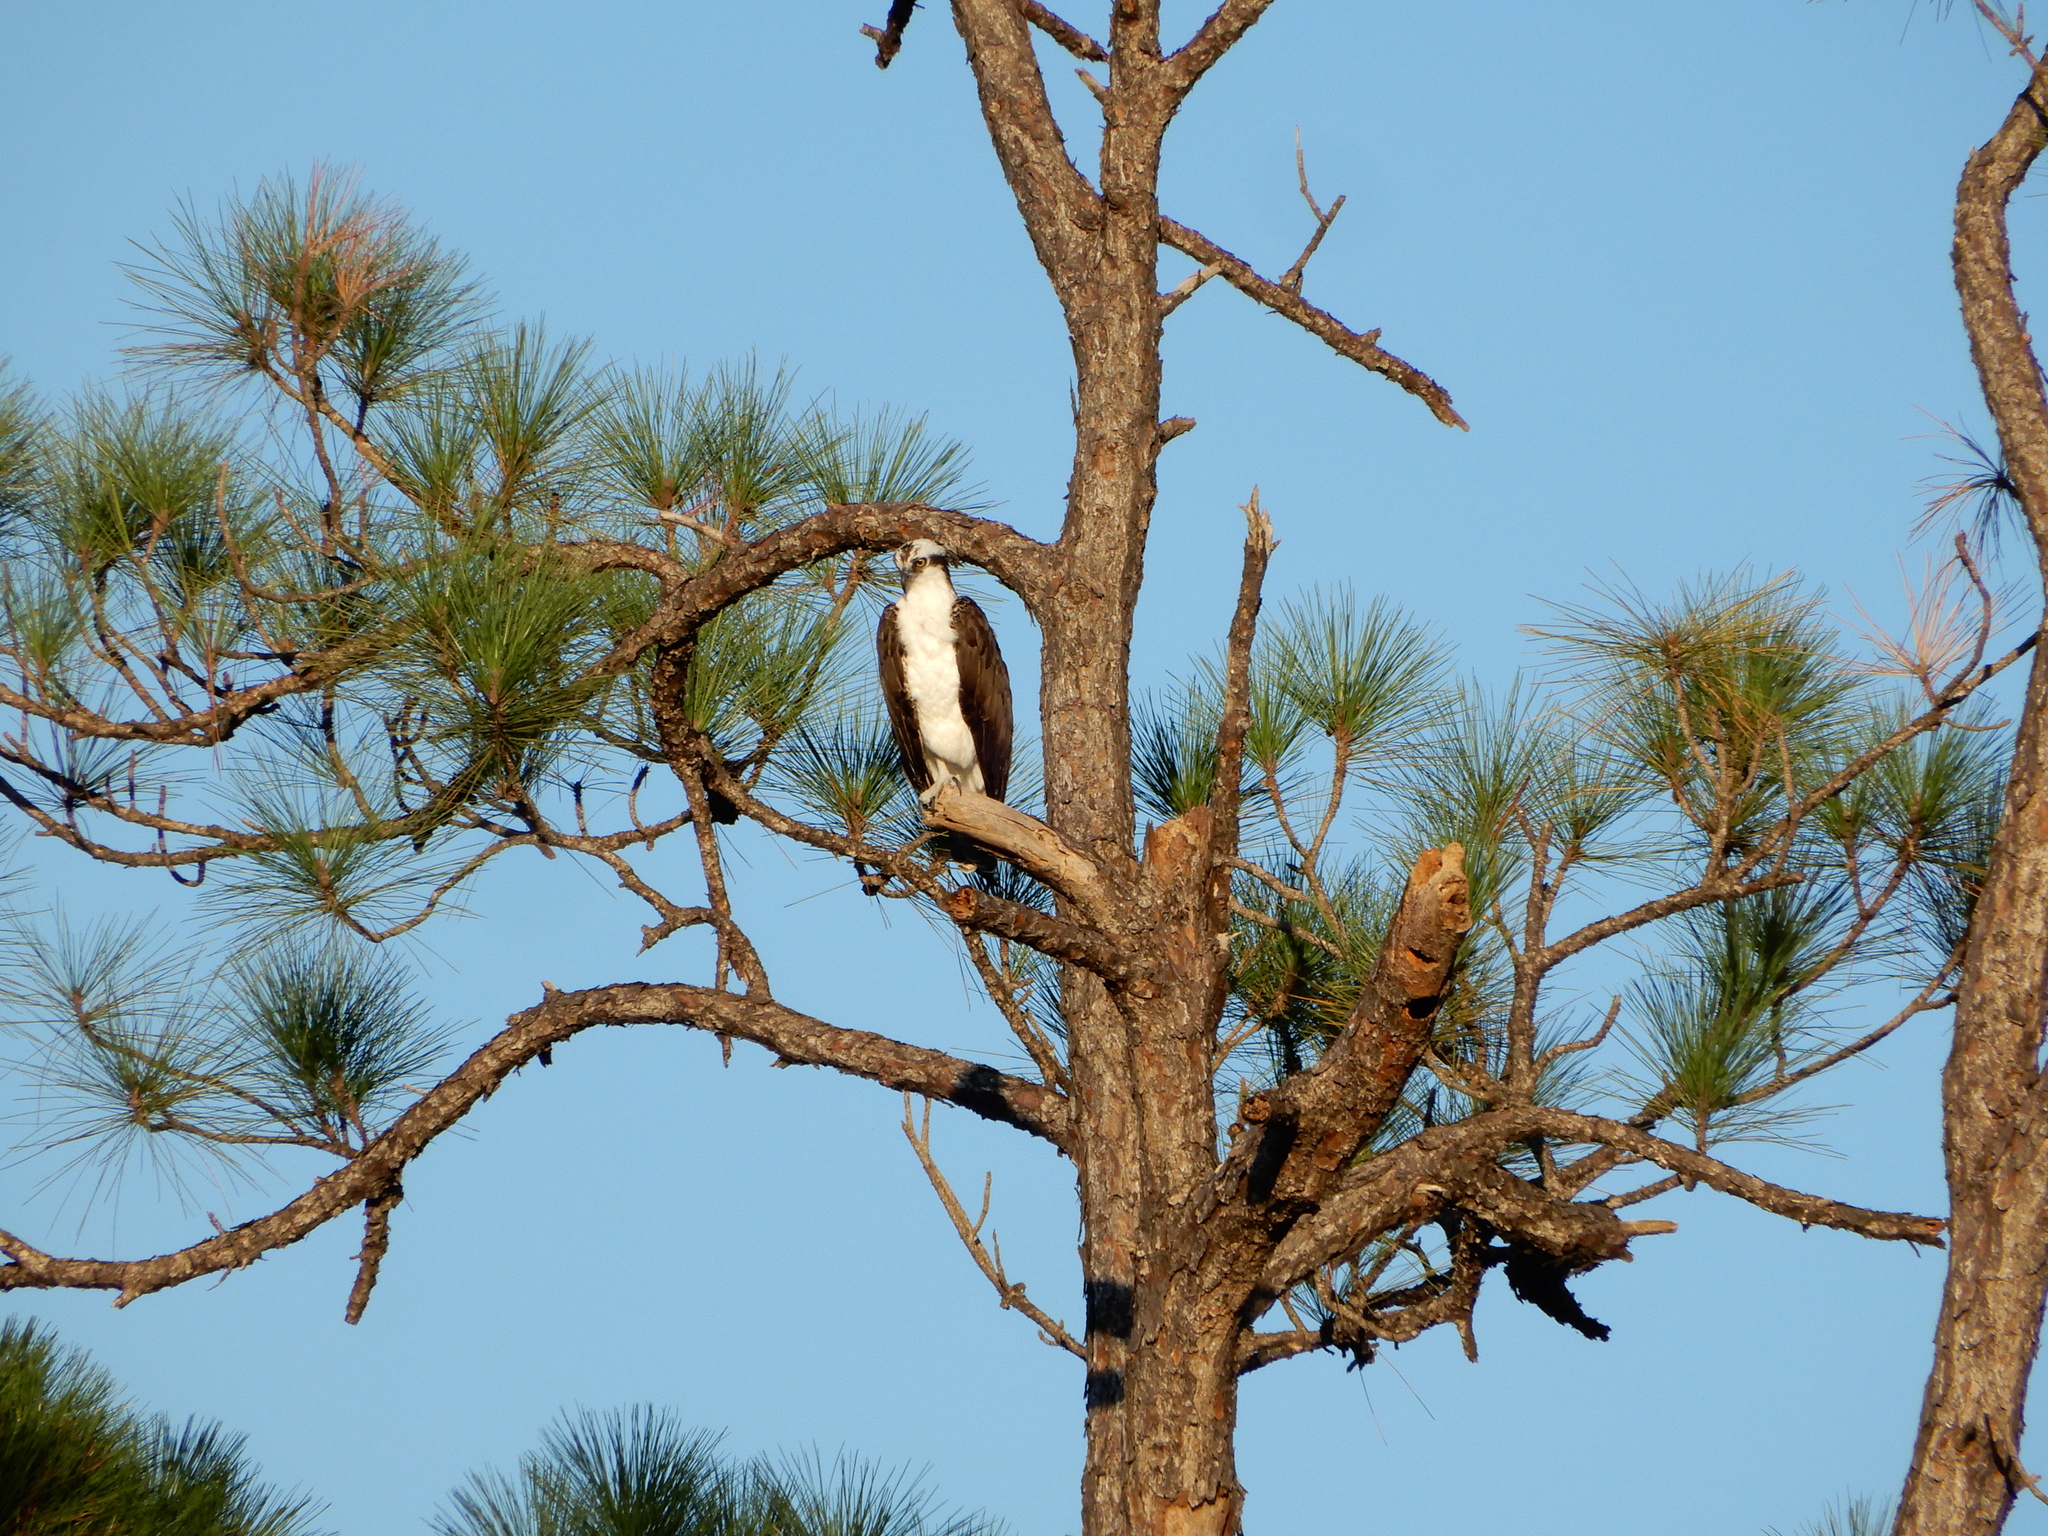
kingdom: Animalia
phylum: Chordata
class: Aves
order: Accipitriformes
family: Pandionidae
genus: Pandion
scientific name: Pandion haliaetus
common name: Osprey
